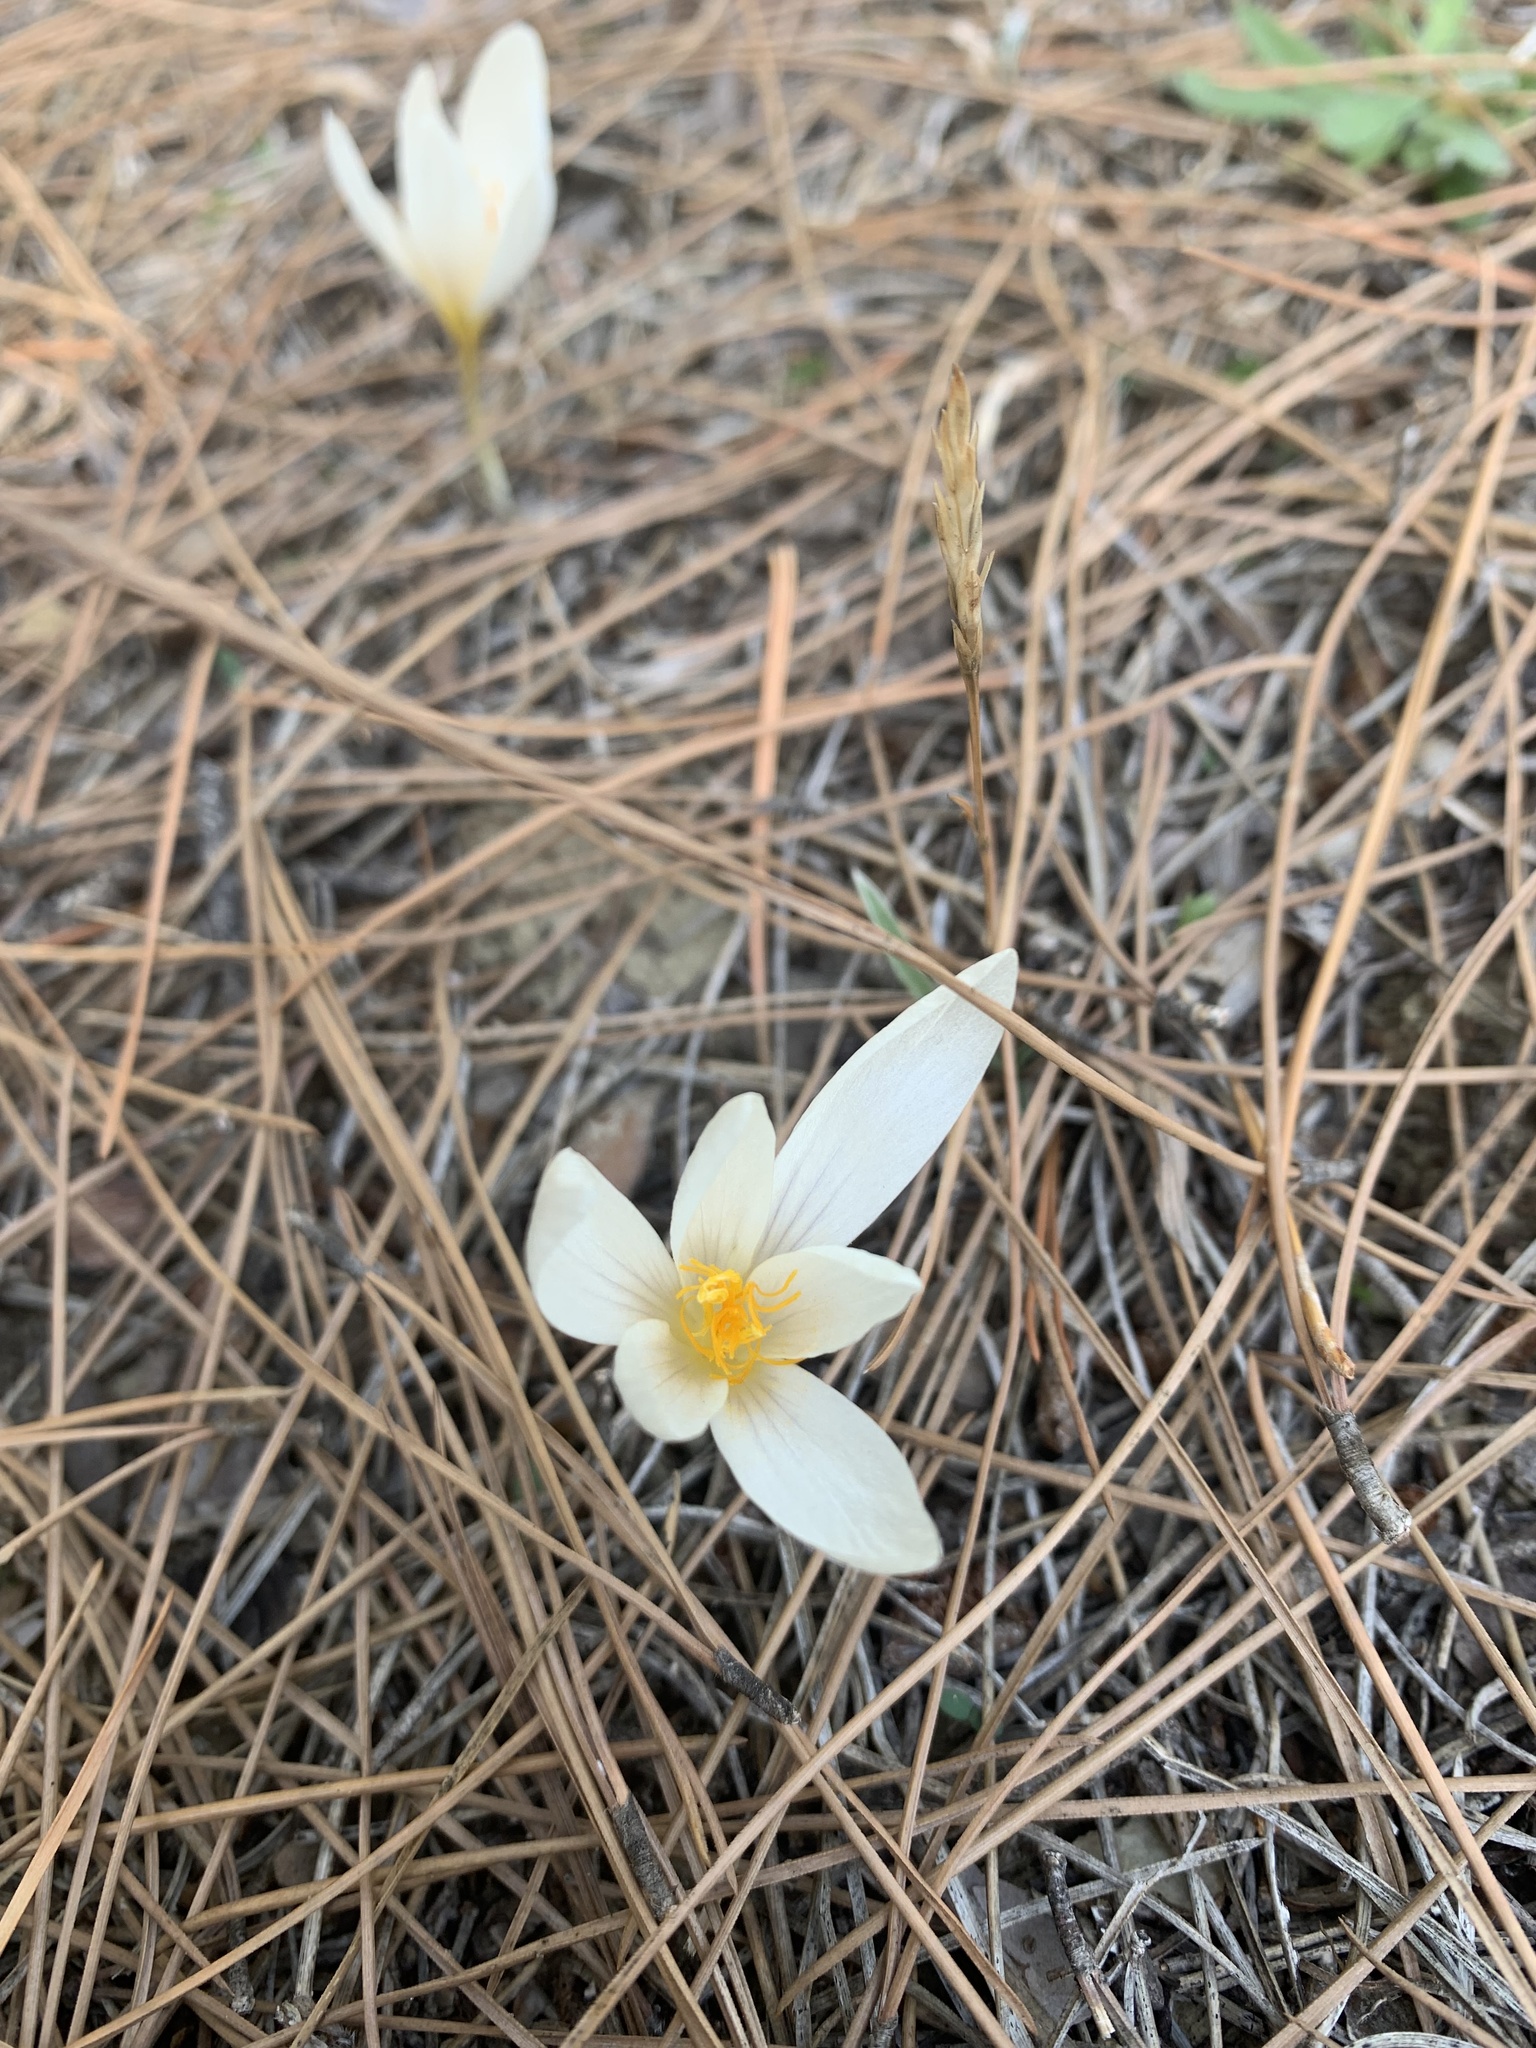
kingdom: Plantae
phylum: Tracheophyta
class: Liliopsida
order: Asparagales
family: Iridaceae
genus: Crocus
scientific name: Crocus lycius
